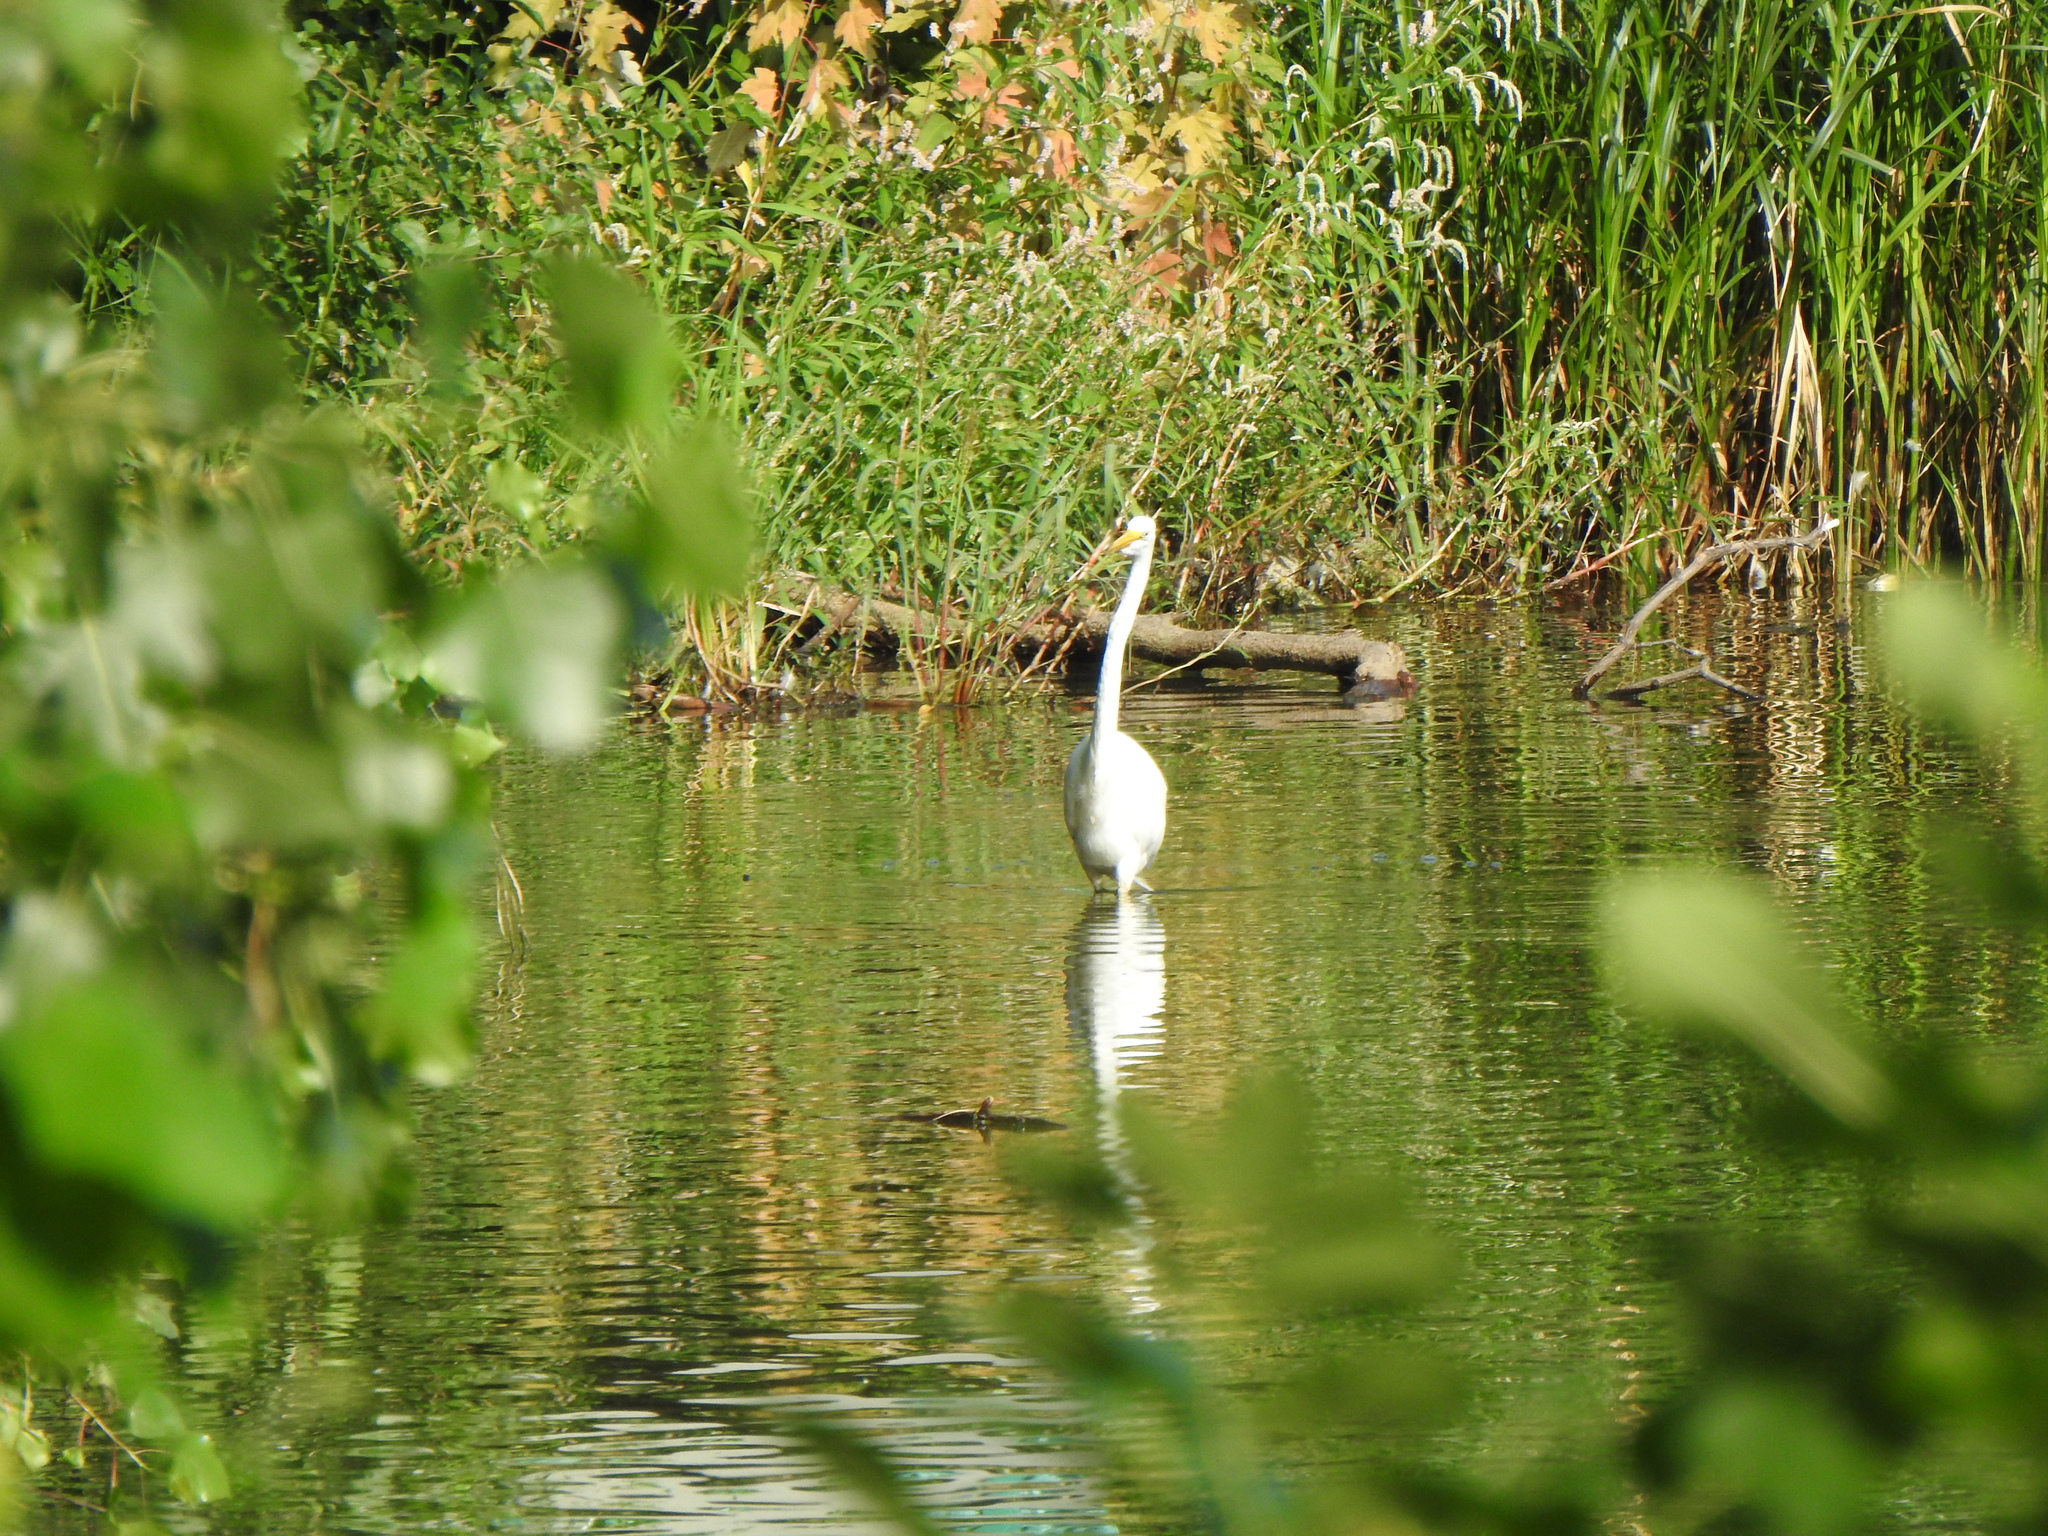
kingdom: Animalia
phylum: Chordata
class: Aves
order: Pelecaniformes
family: Ardeidae
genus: Ardea
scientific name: Ardea alba
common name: Great egret
